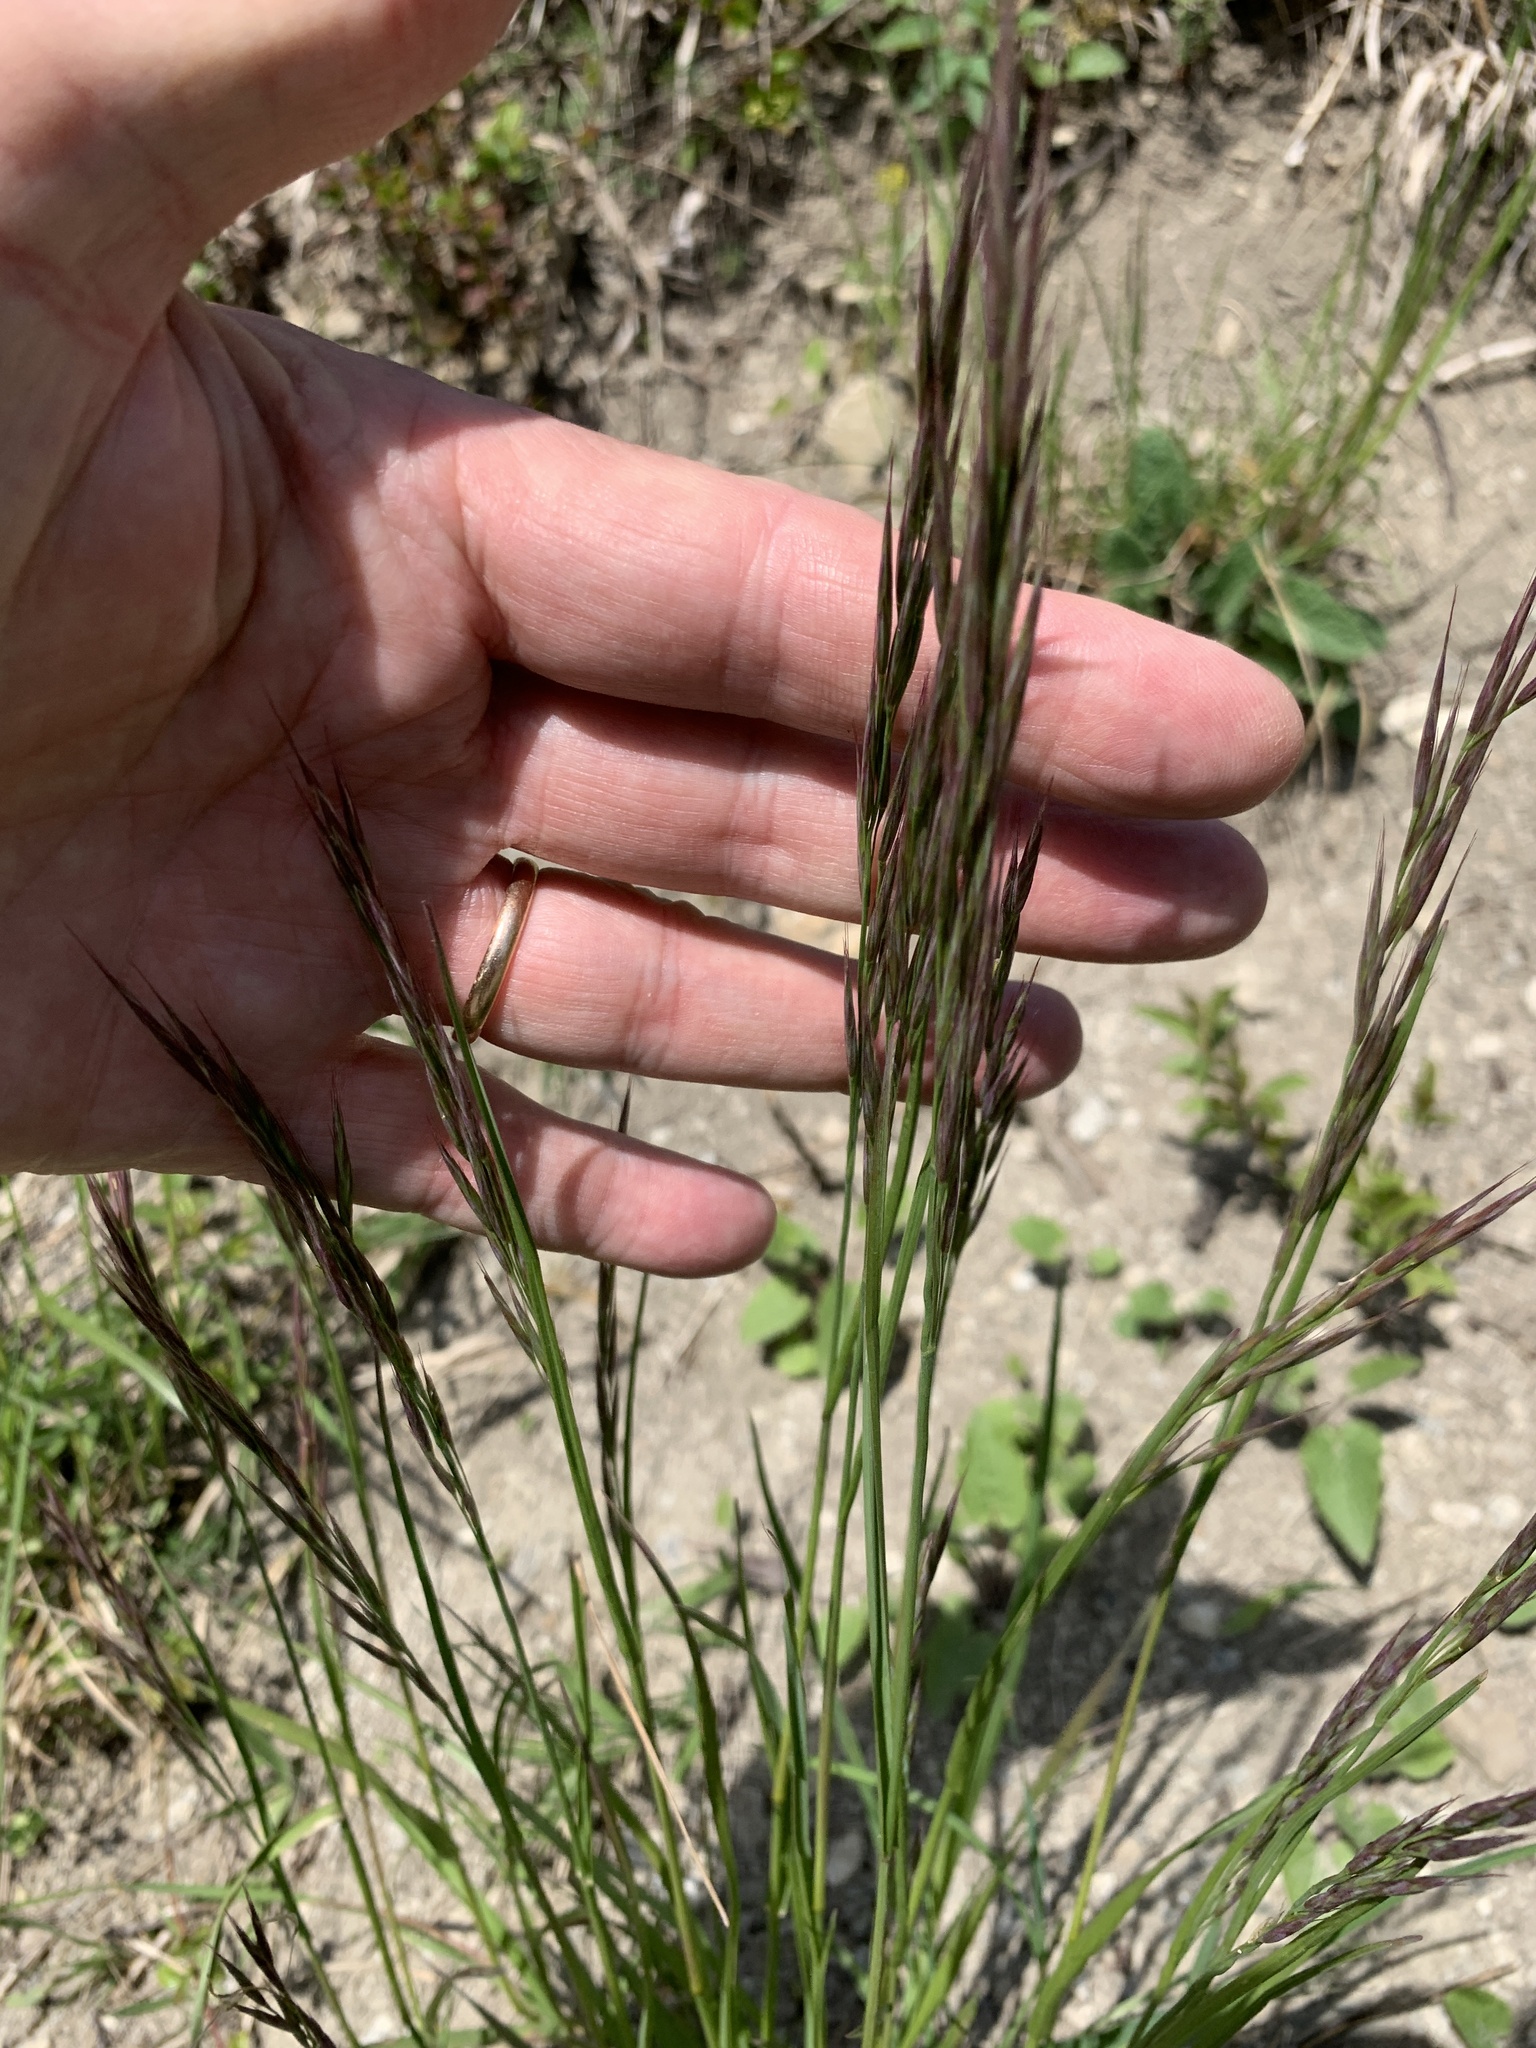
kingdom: Plantae
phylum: Tracheophyta
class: Liliopsida
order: Poales
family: Poaceae
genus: Bromus
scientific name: Bromus erectus
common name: Erect brome
